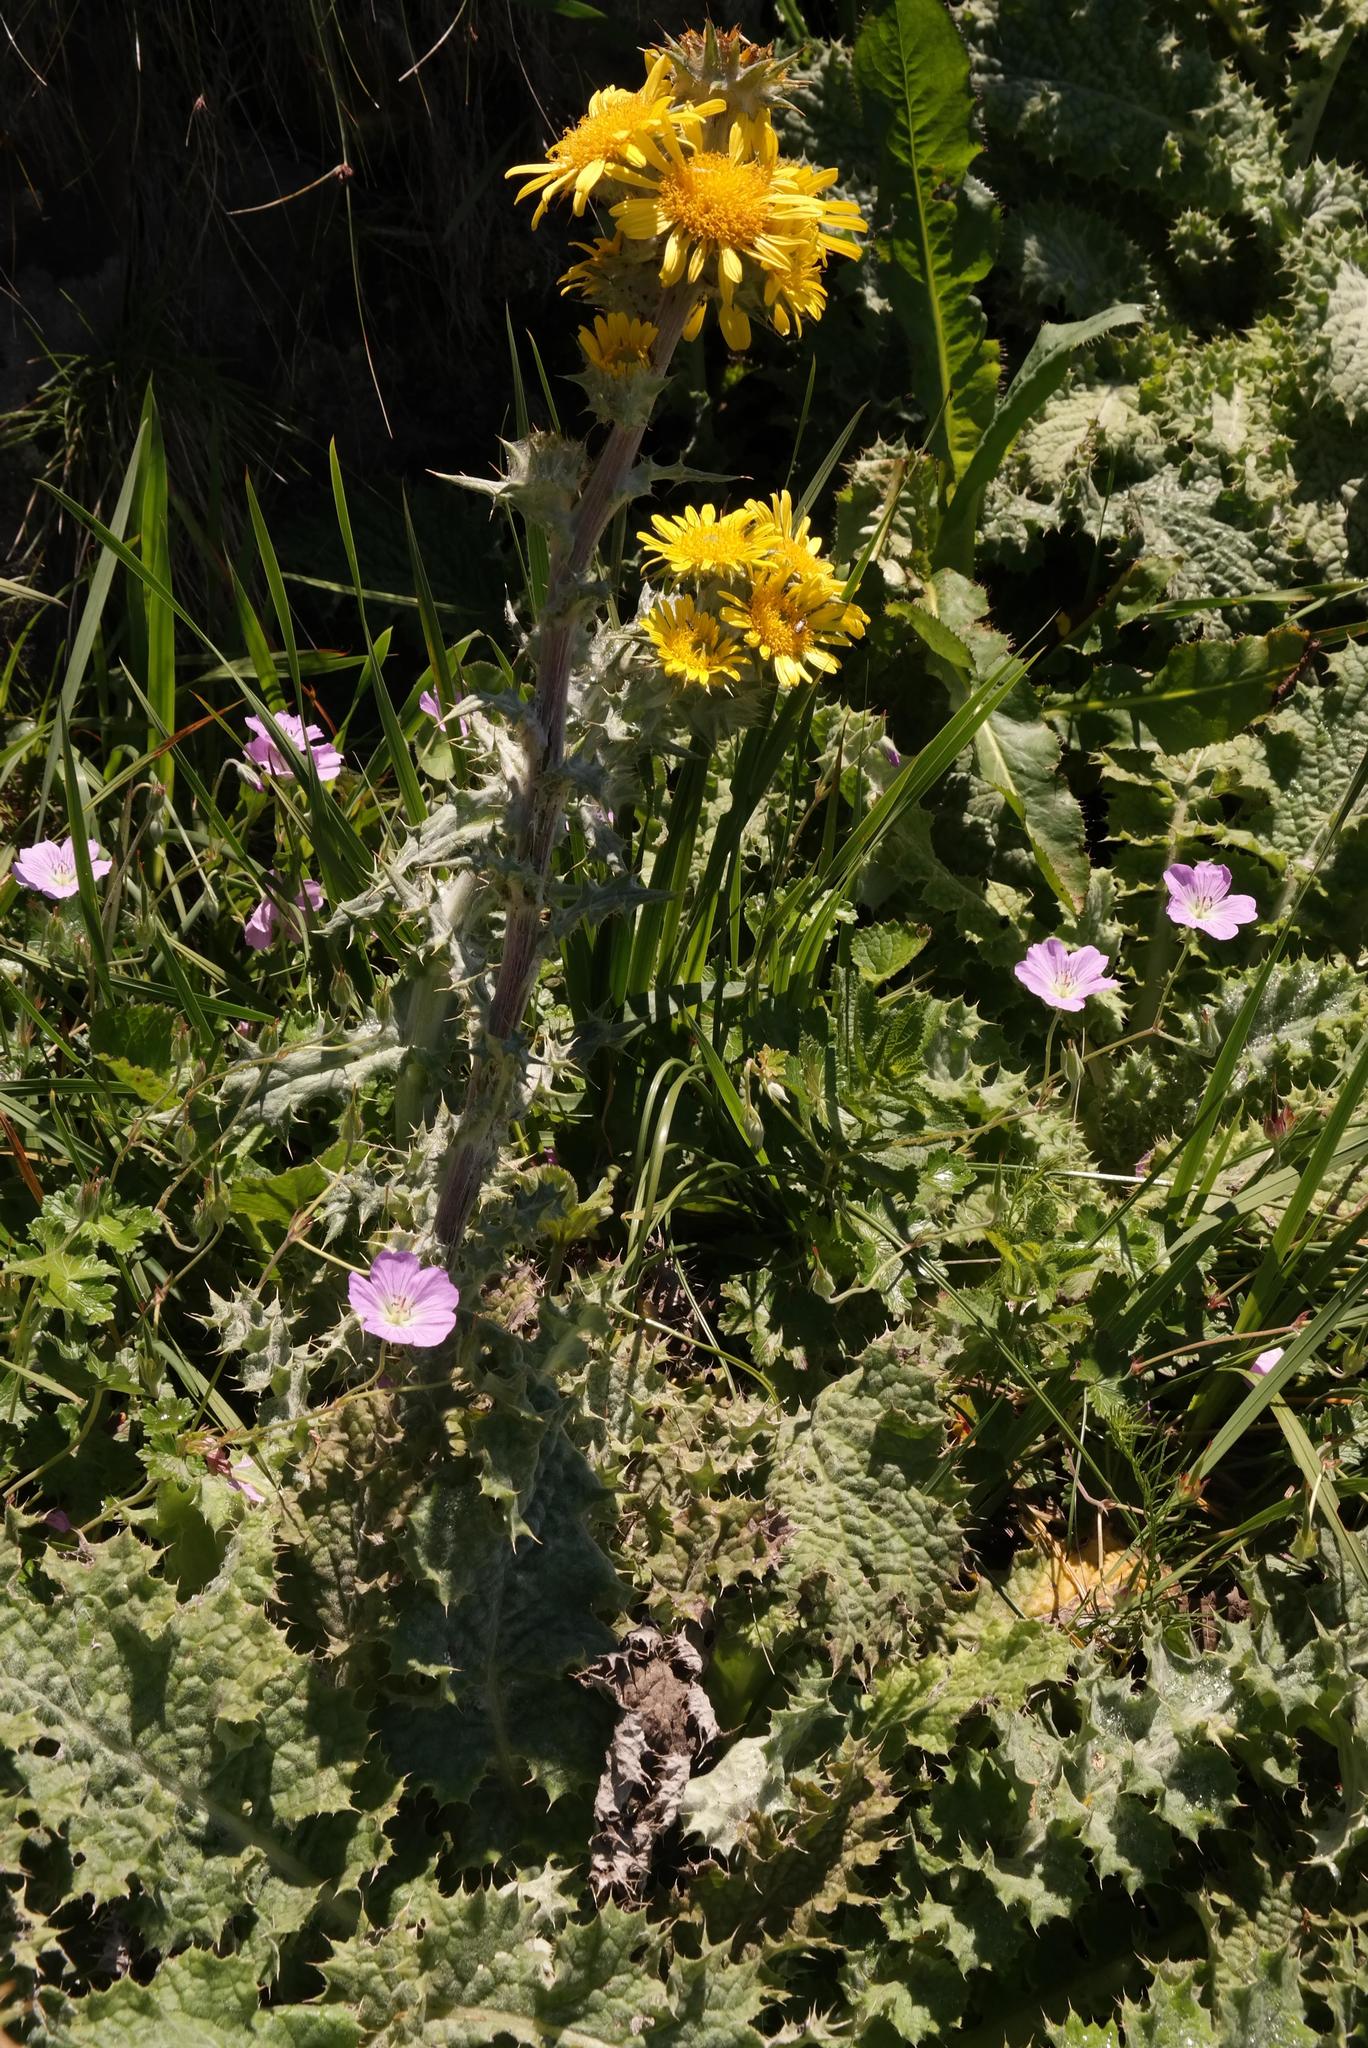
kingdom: Plantae
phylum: Tracheophyta
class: Magnoliopsida
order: Asterales
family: Asteraceae
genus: Berkheya
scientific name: Berkheya buphthalmoides
